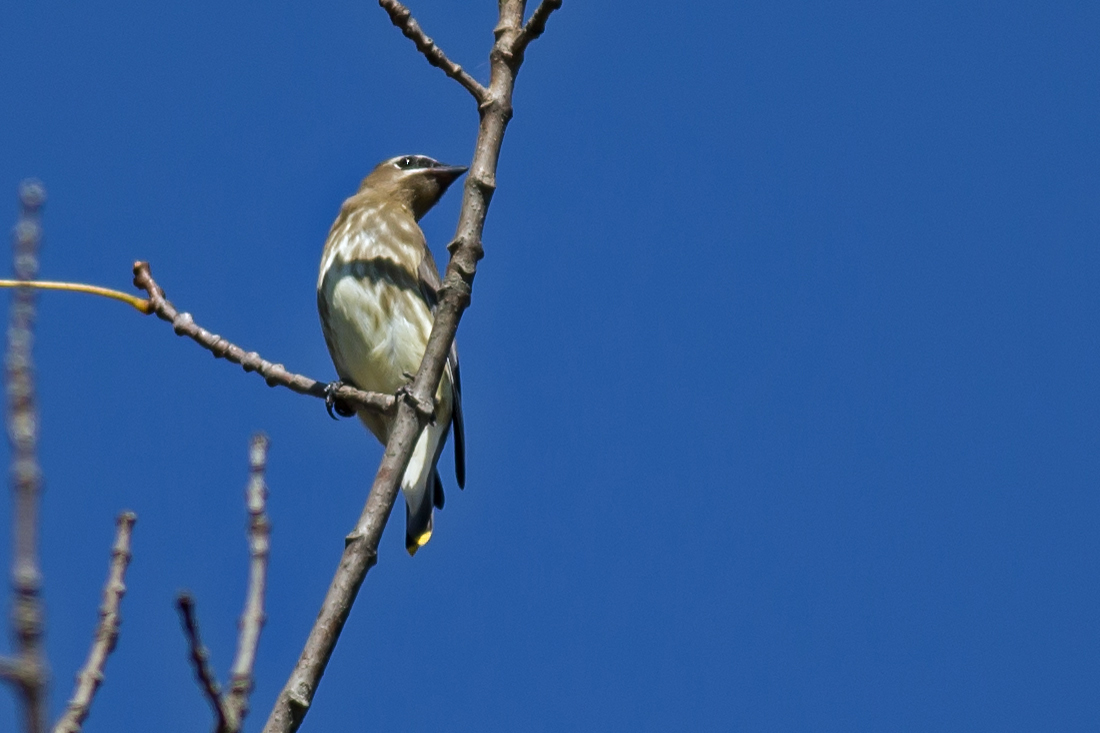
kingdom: Animalia
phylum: Chordata
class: Aves
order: Passeriformes
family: Bombycillidae
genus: Bombycilla
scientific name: Bombycilla cedrorum
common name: Cedar waxwing
